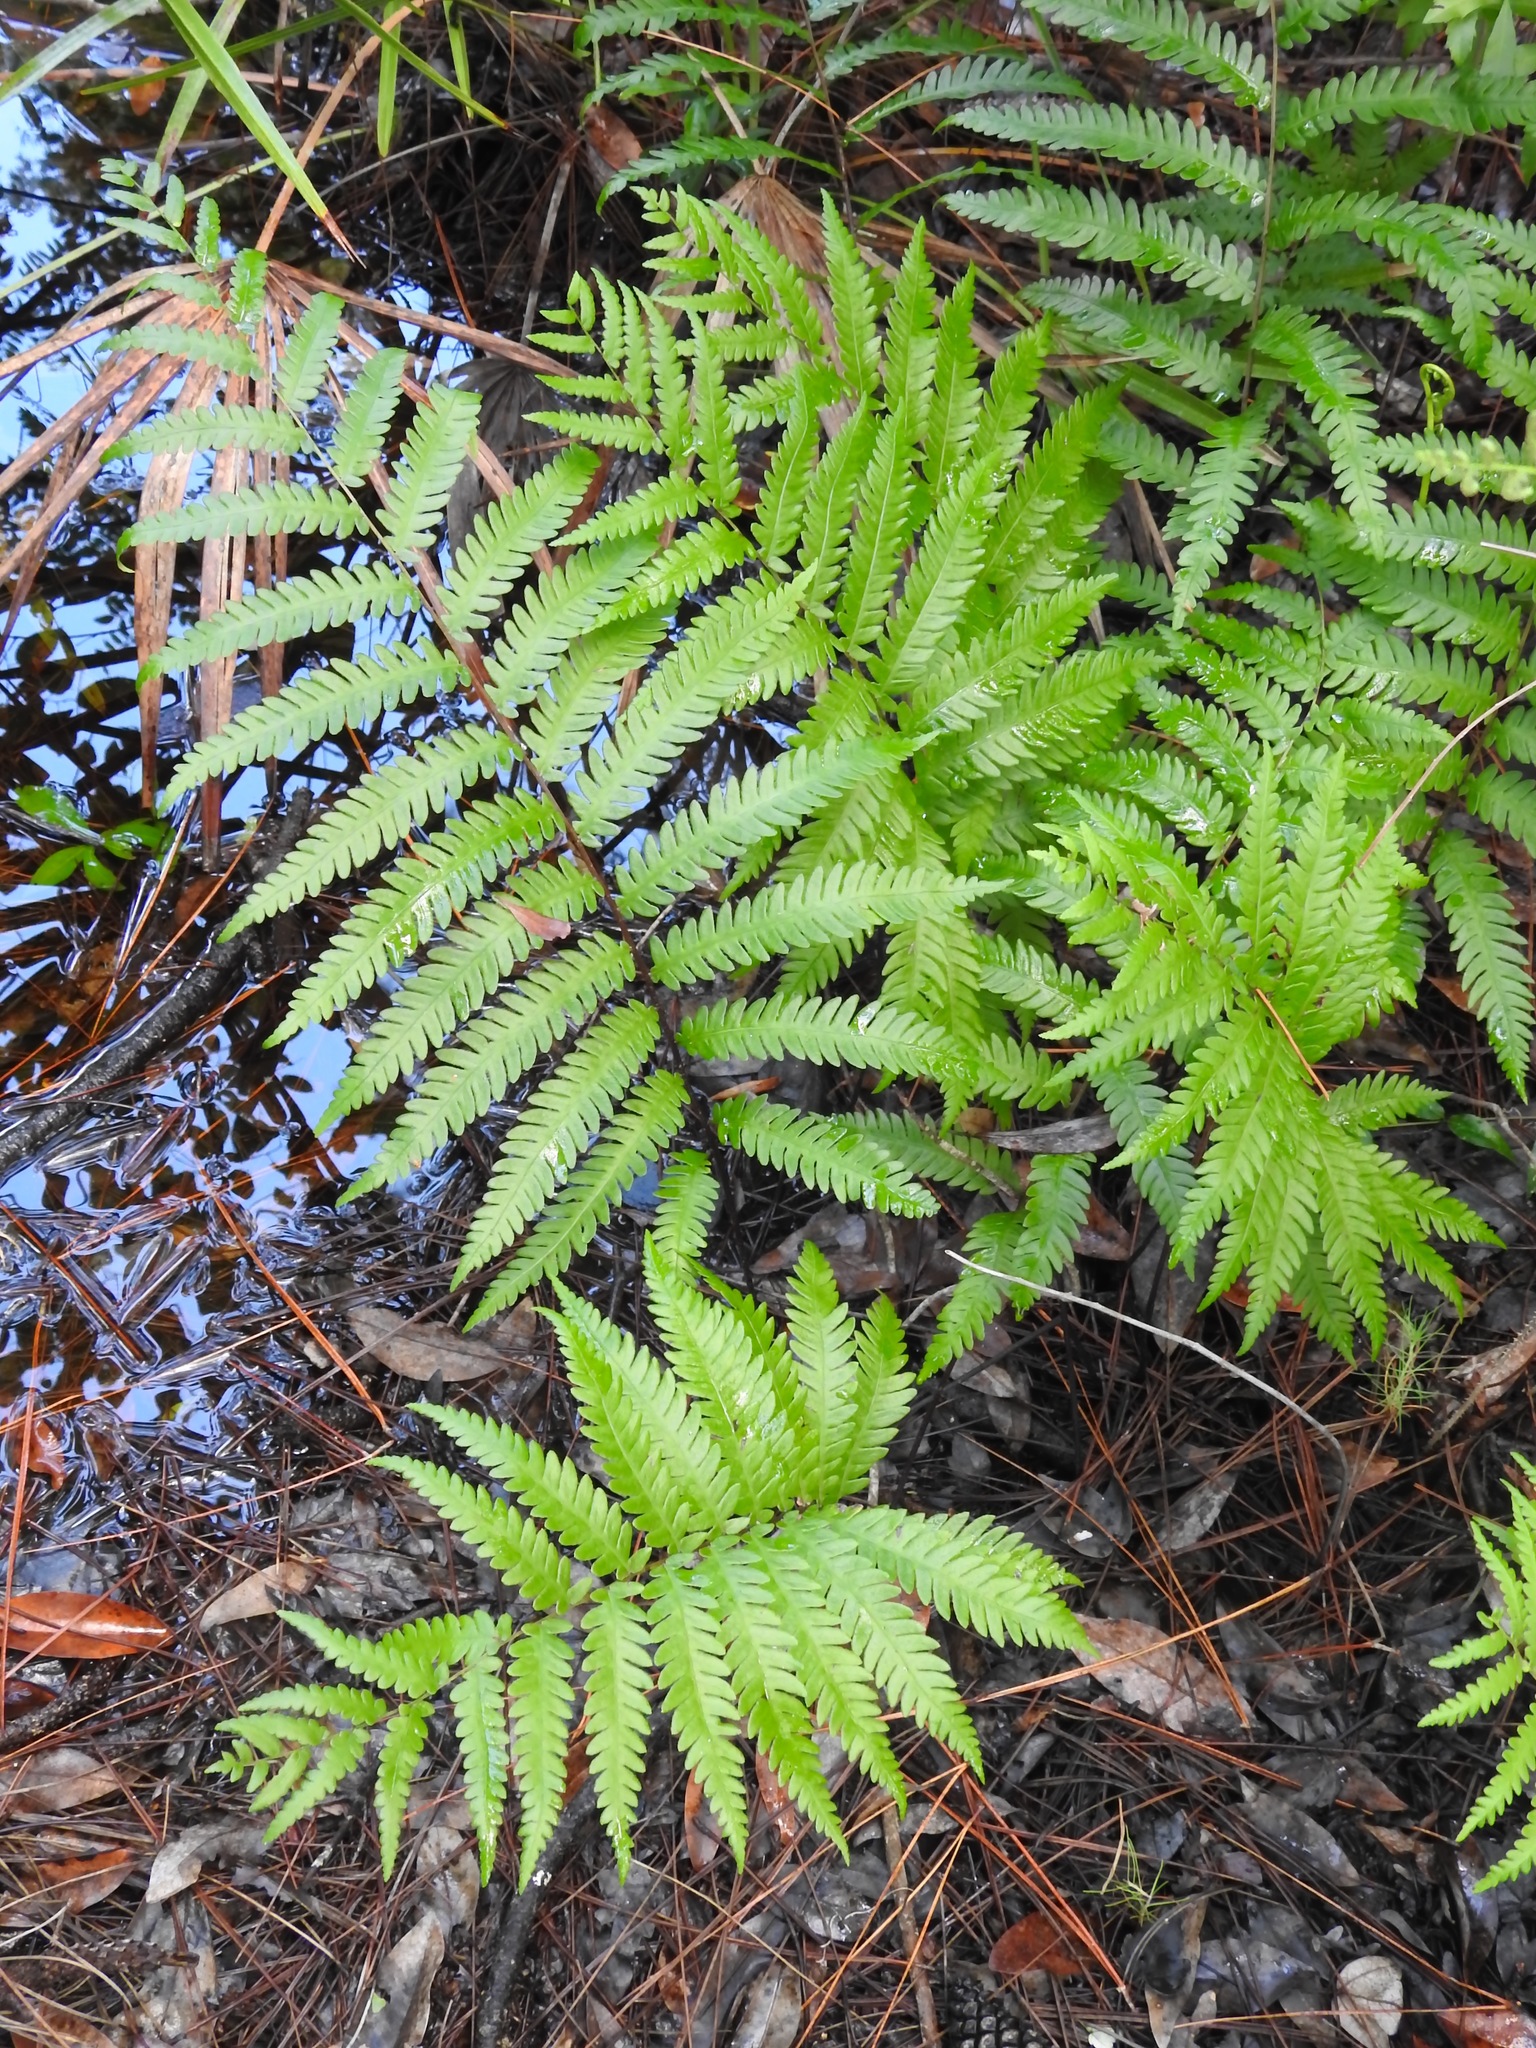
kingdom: Plantae
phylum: Tracheophyta
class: Polypodiopsida
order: Polypodiales
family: Blechnaceae
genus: Anchistea
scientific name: Anchistea virginica
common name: Virginia chain fern
